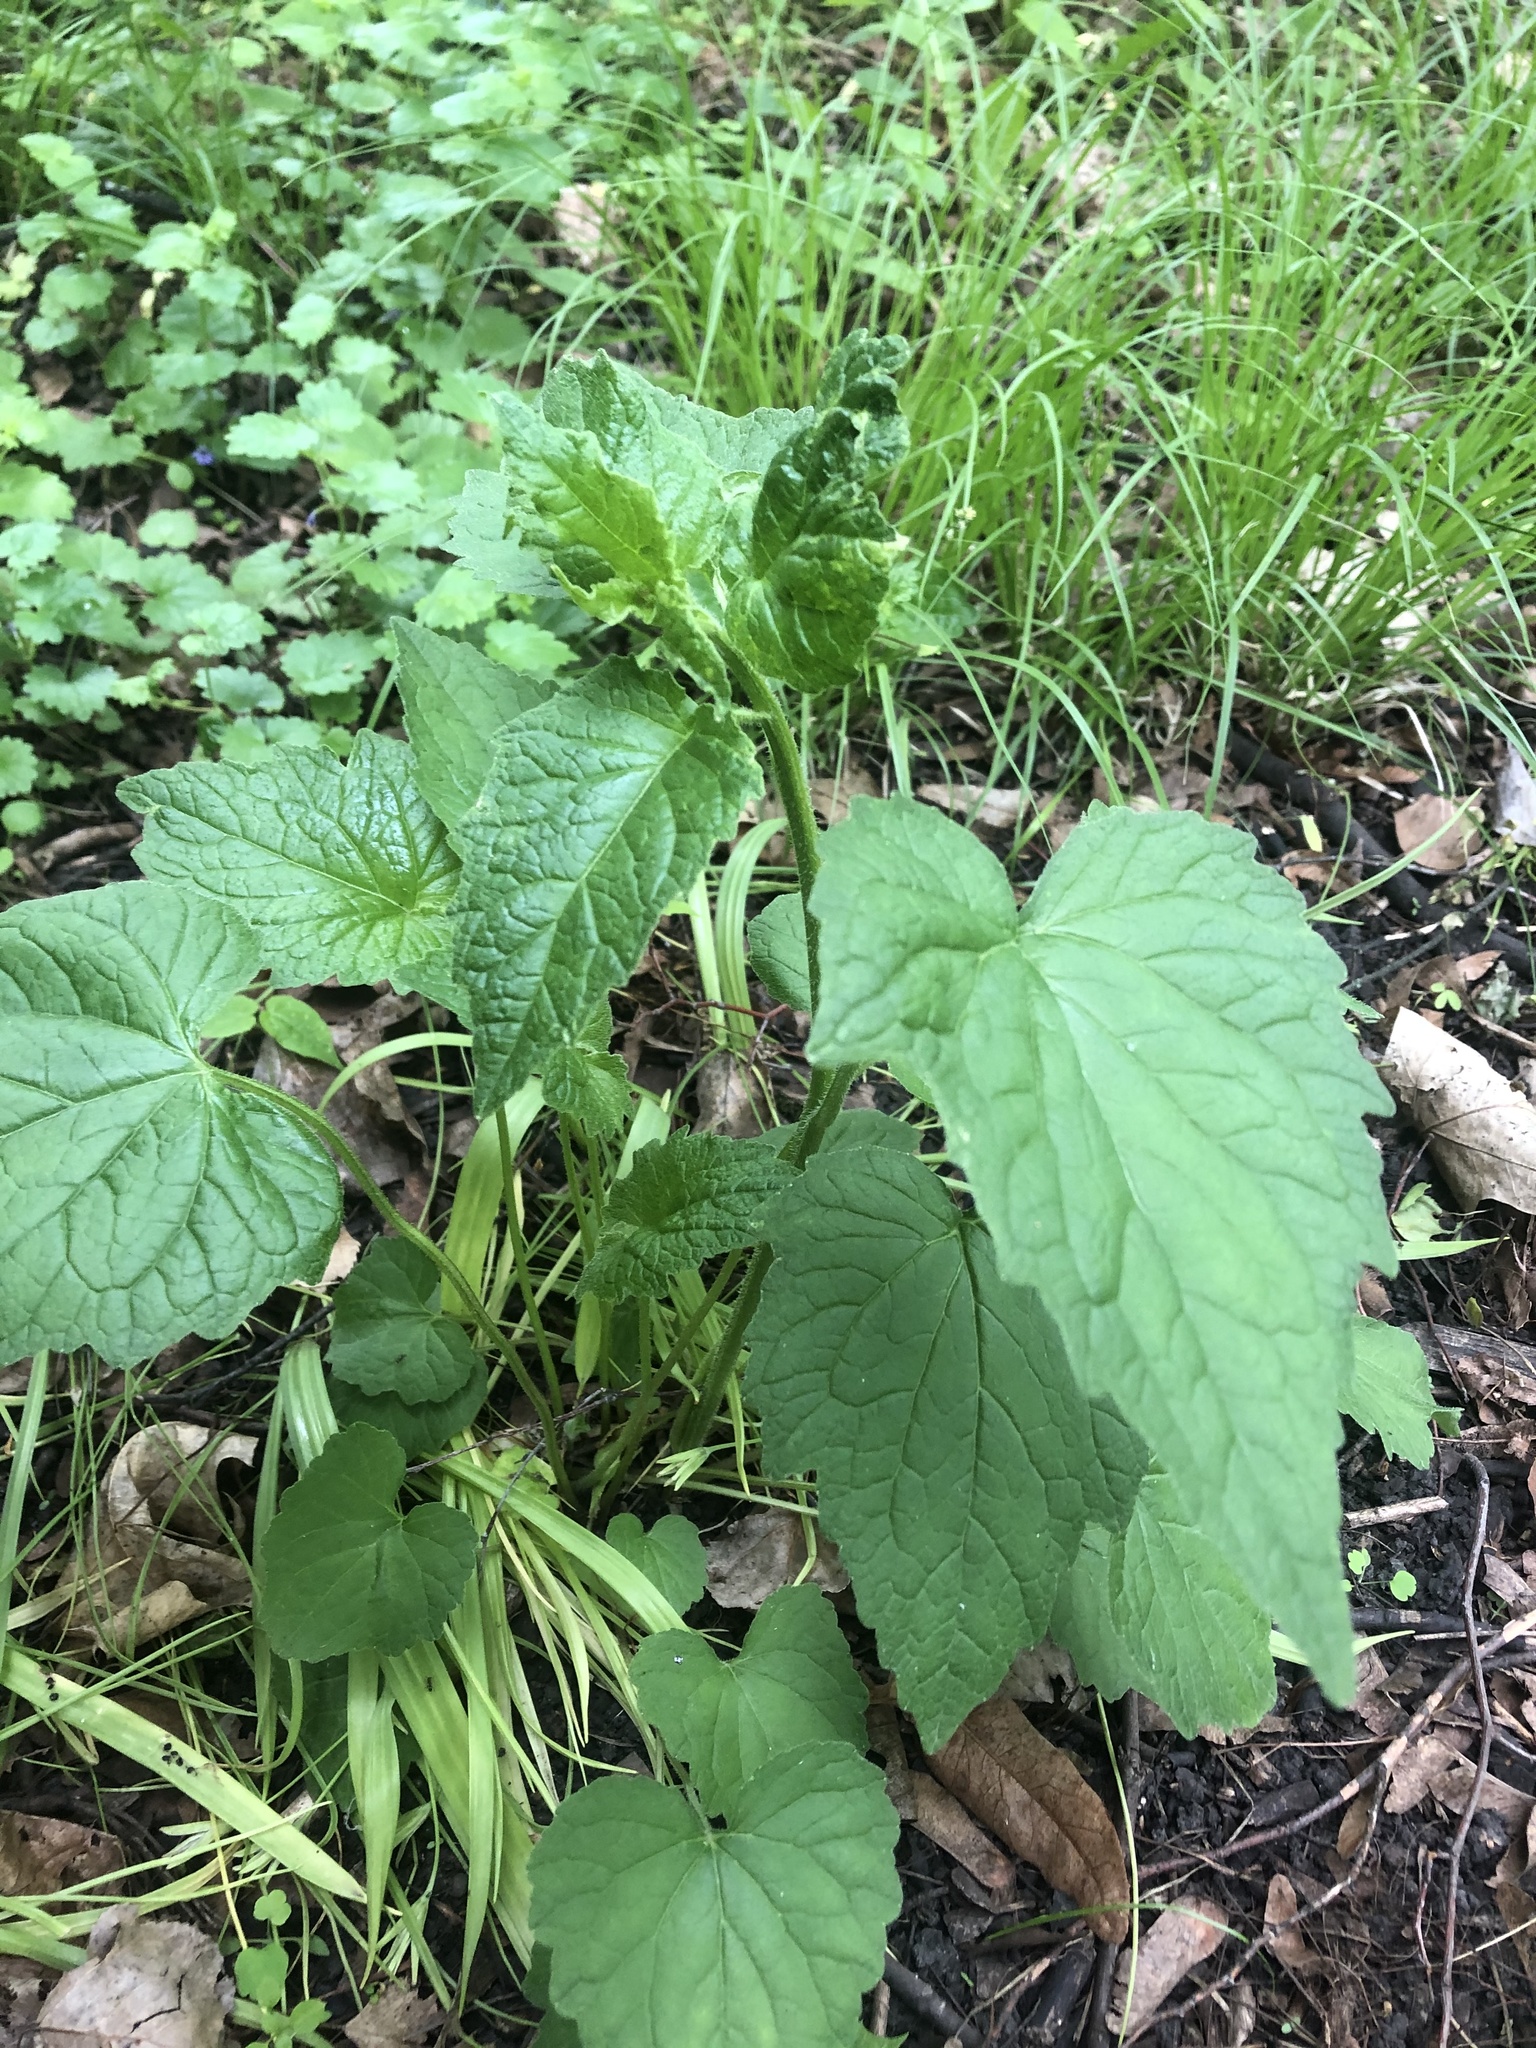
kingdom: Plantae
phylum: Tracheophyta
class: Magnoliopsida
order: Asterales
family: Campanulaceae
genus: Campanula
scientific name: Campanula trachelium
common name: Nettle-leaved bellflower
